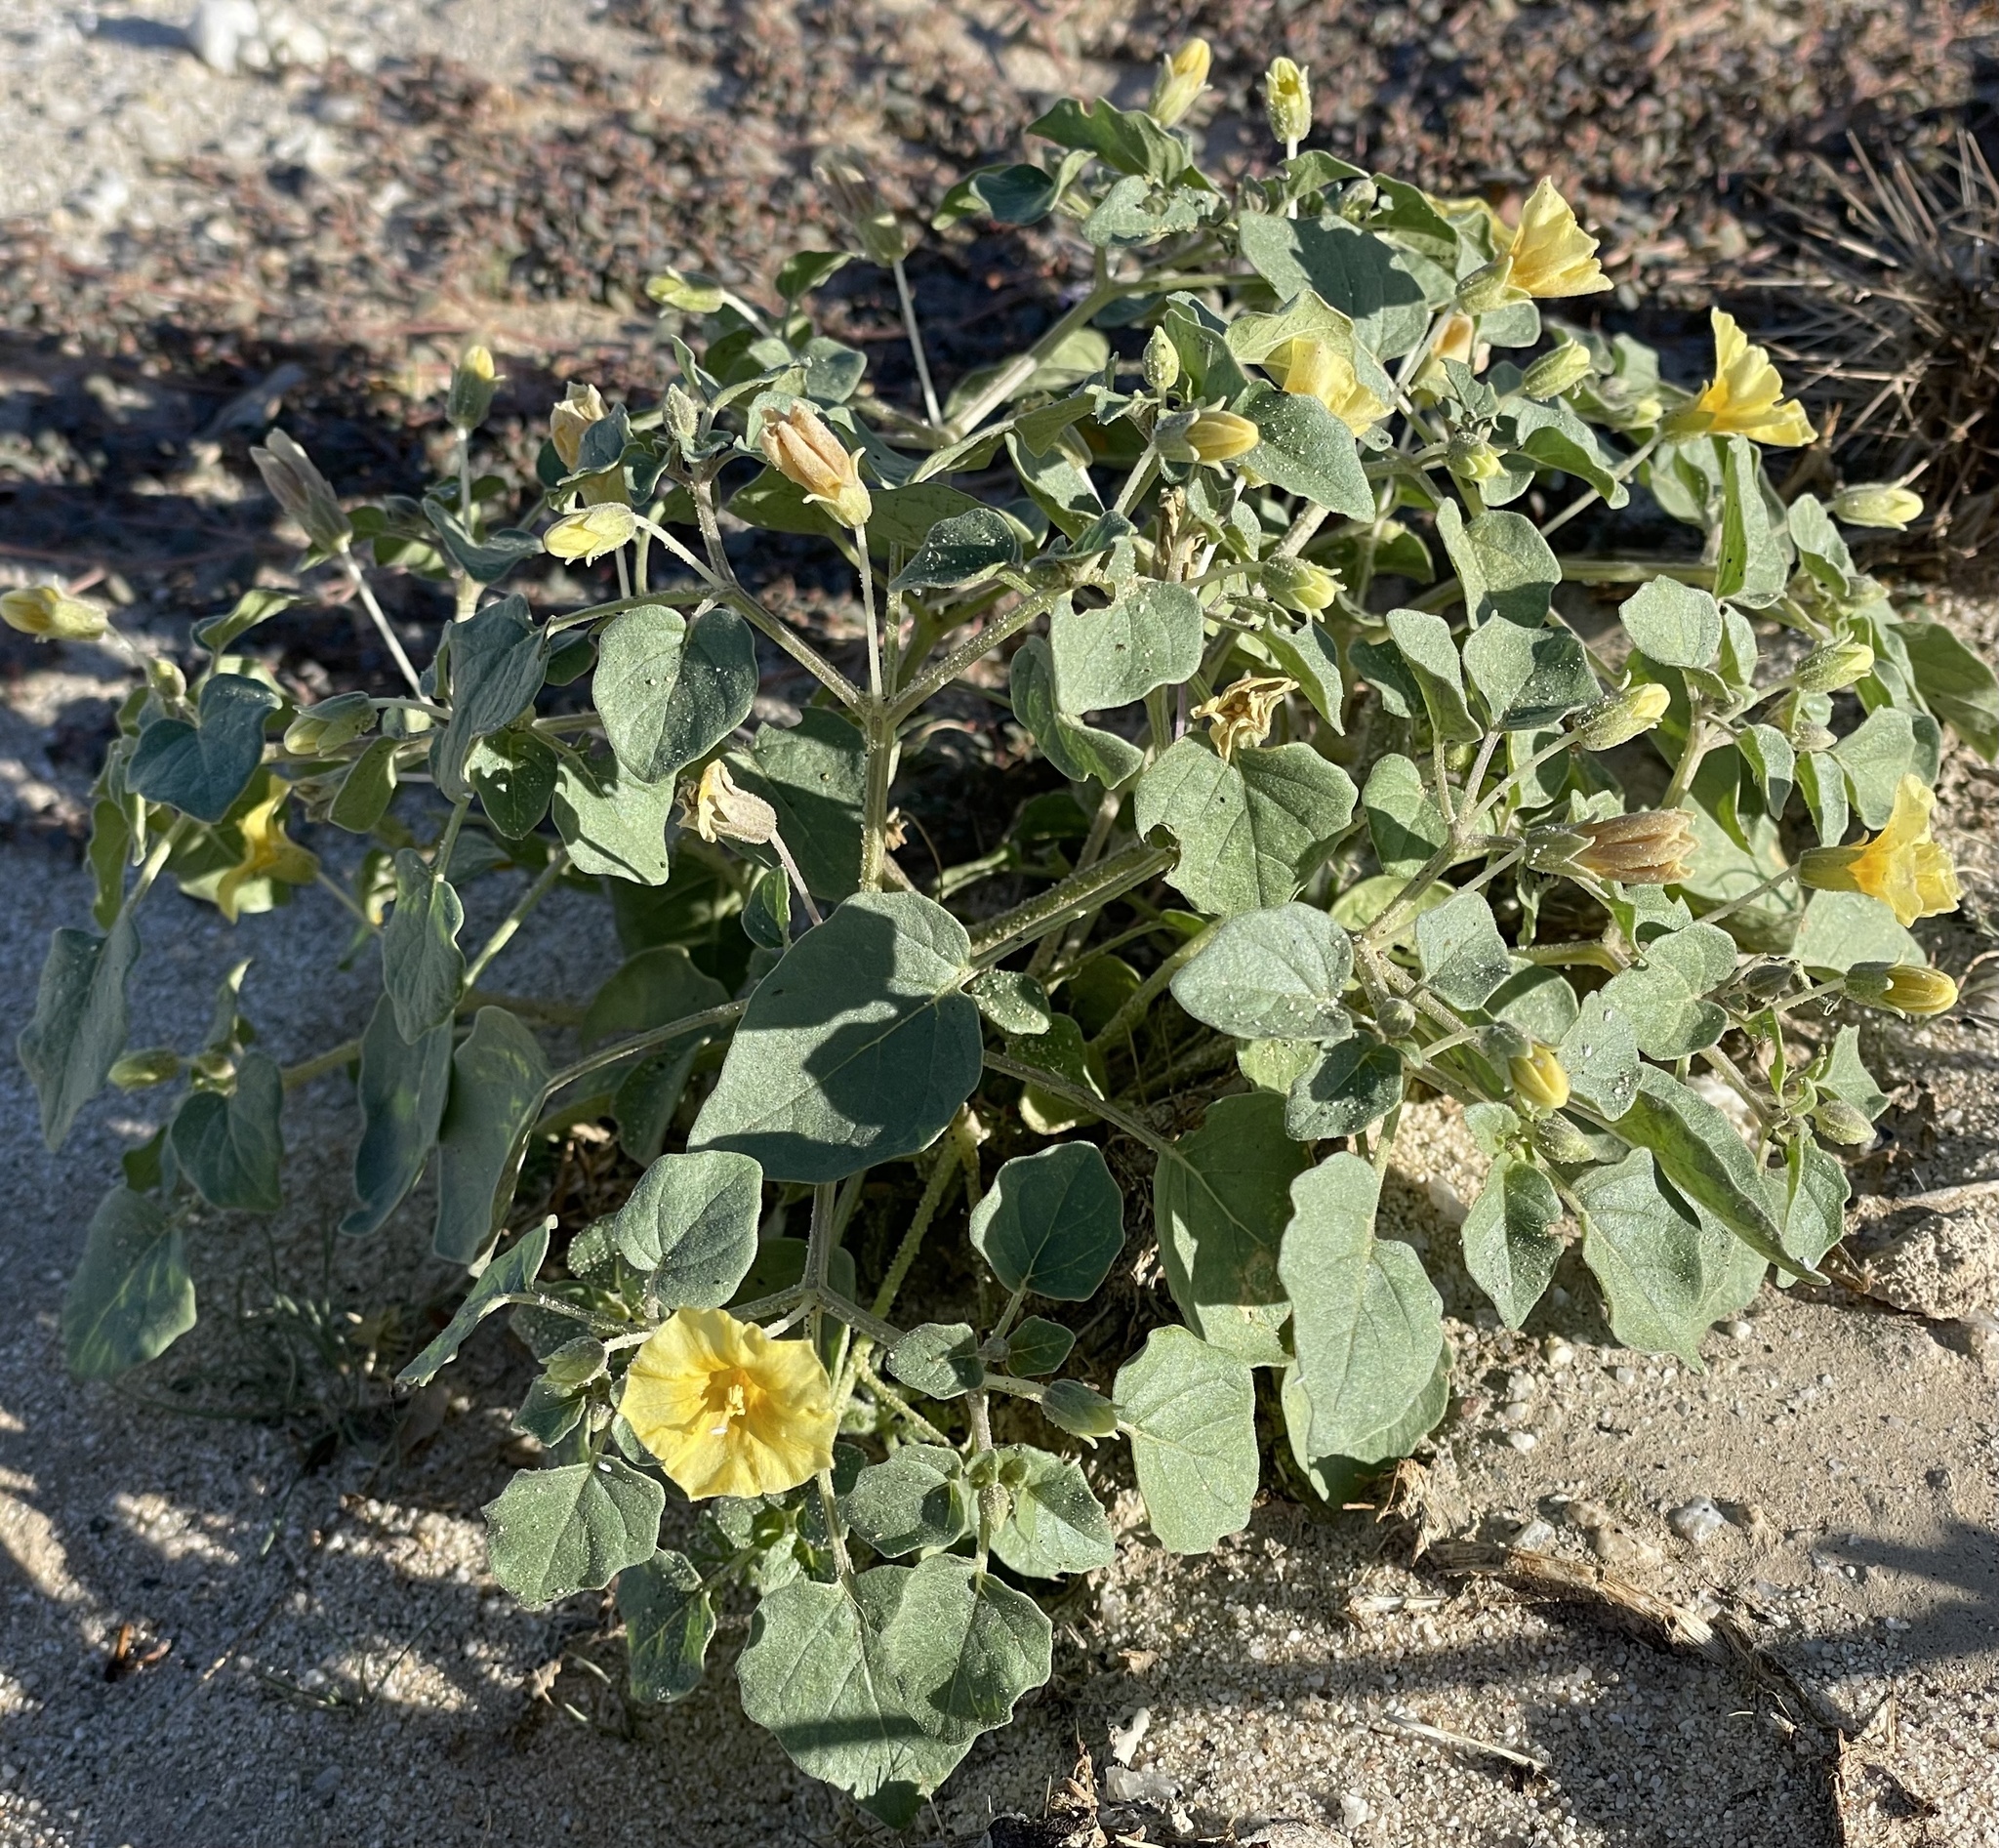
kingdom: Plantae
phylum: Tracheophyta
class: Magnoliopsida
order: Solanales
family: Solanaceae
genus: Physalis
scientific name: Physalis crassifolia
